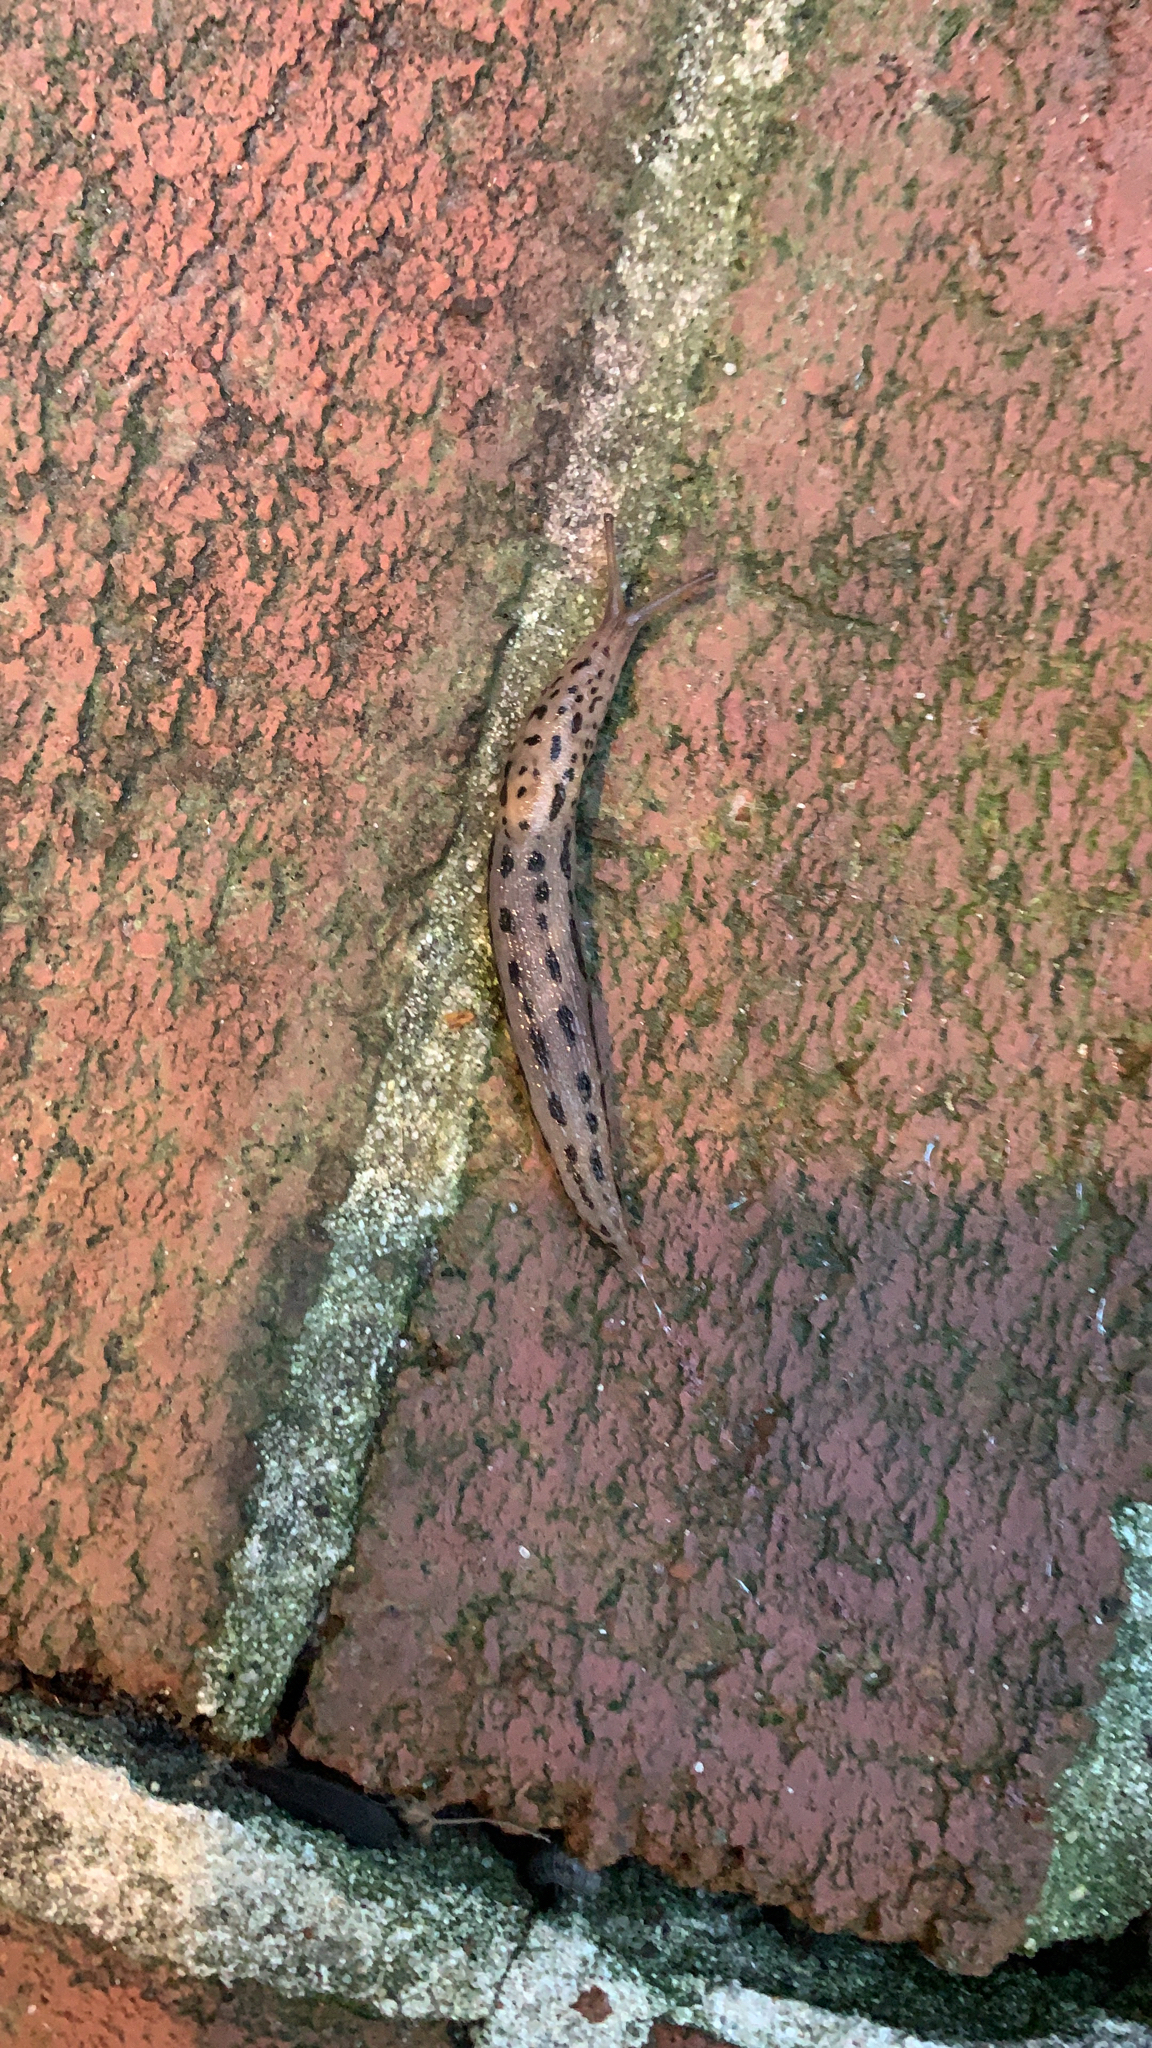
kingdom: Animalia
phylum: Mollusca
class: Gastropoda
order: Stylommatophora
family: Limacidae
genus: Limax
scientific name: Limax maximus
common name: Great grey slug
